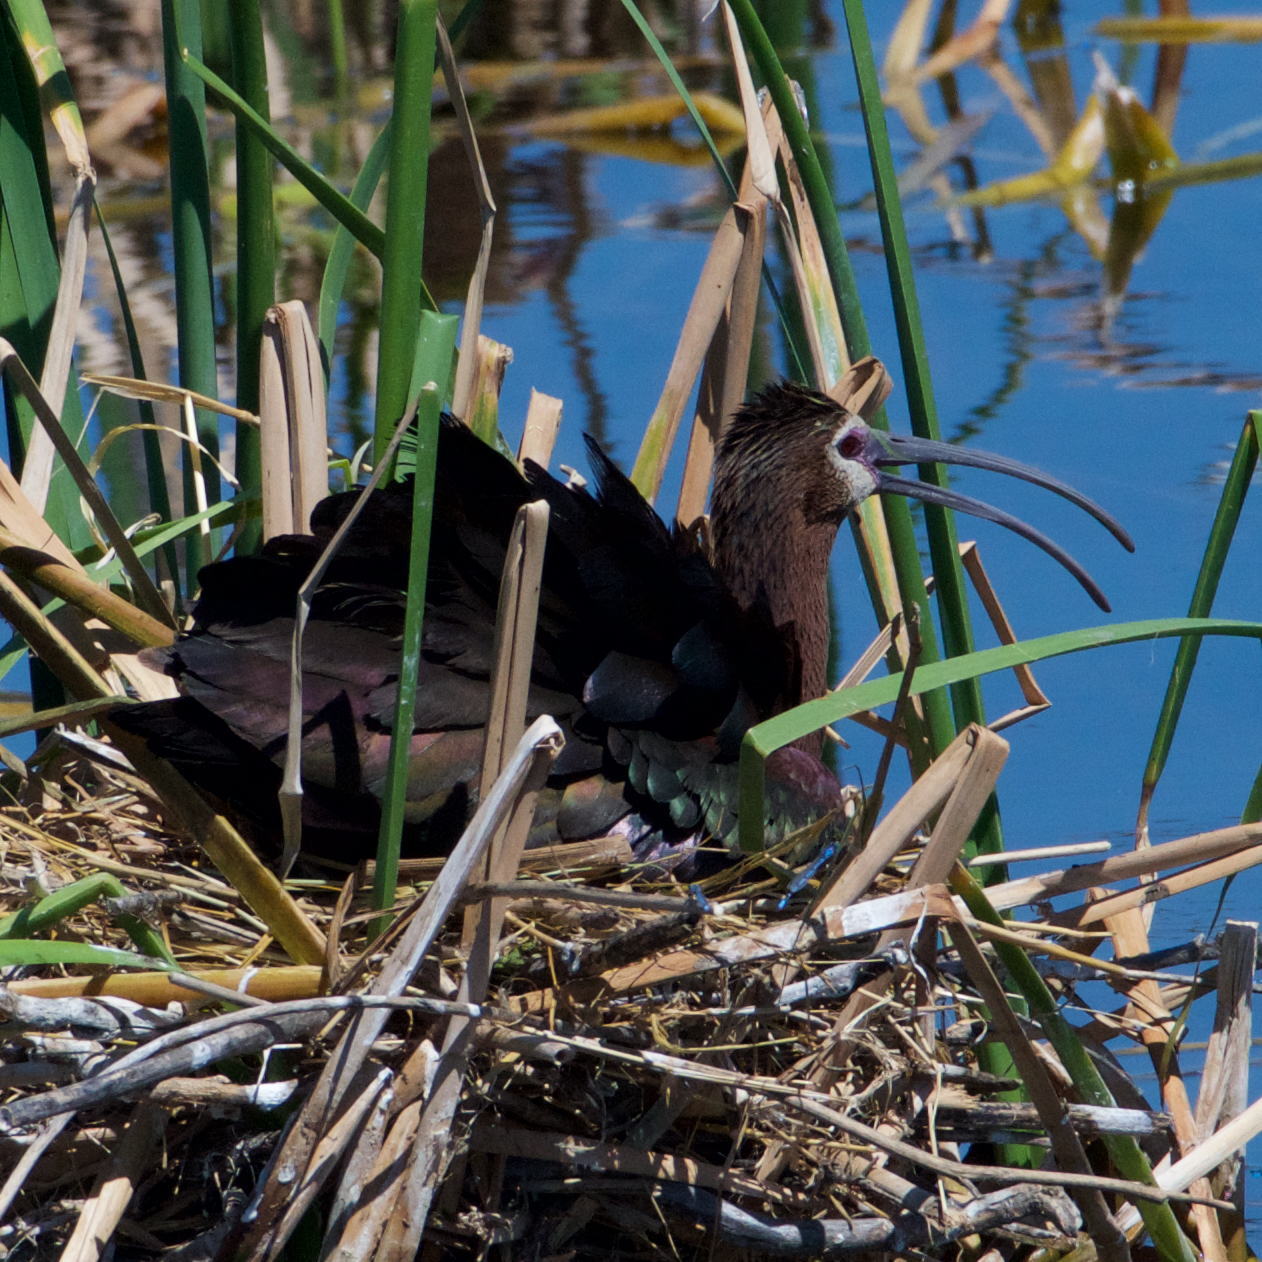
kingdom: Animalia
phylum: Chordata
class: Aves
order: Pelecaniformes
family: Threskiornithidae
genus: Plegadis
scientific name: Plegadis chihi
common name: White-faced ibis
